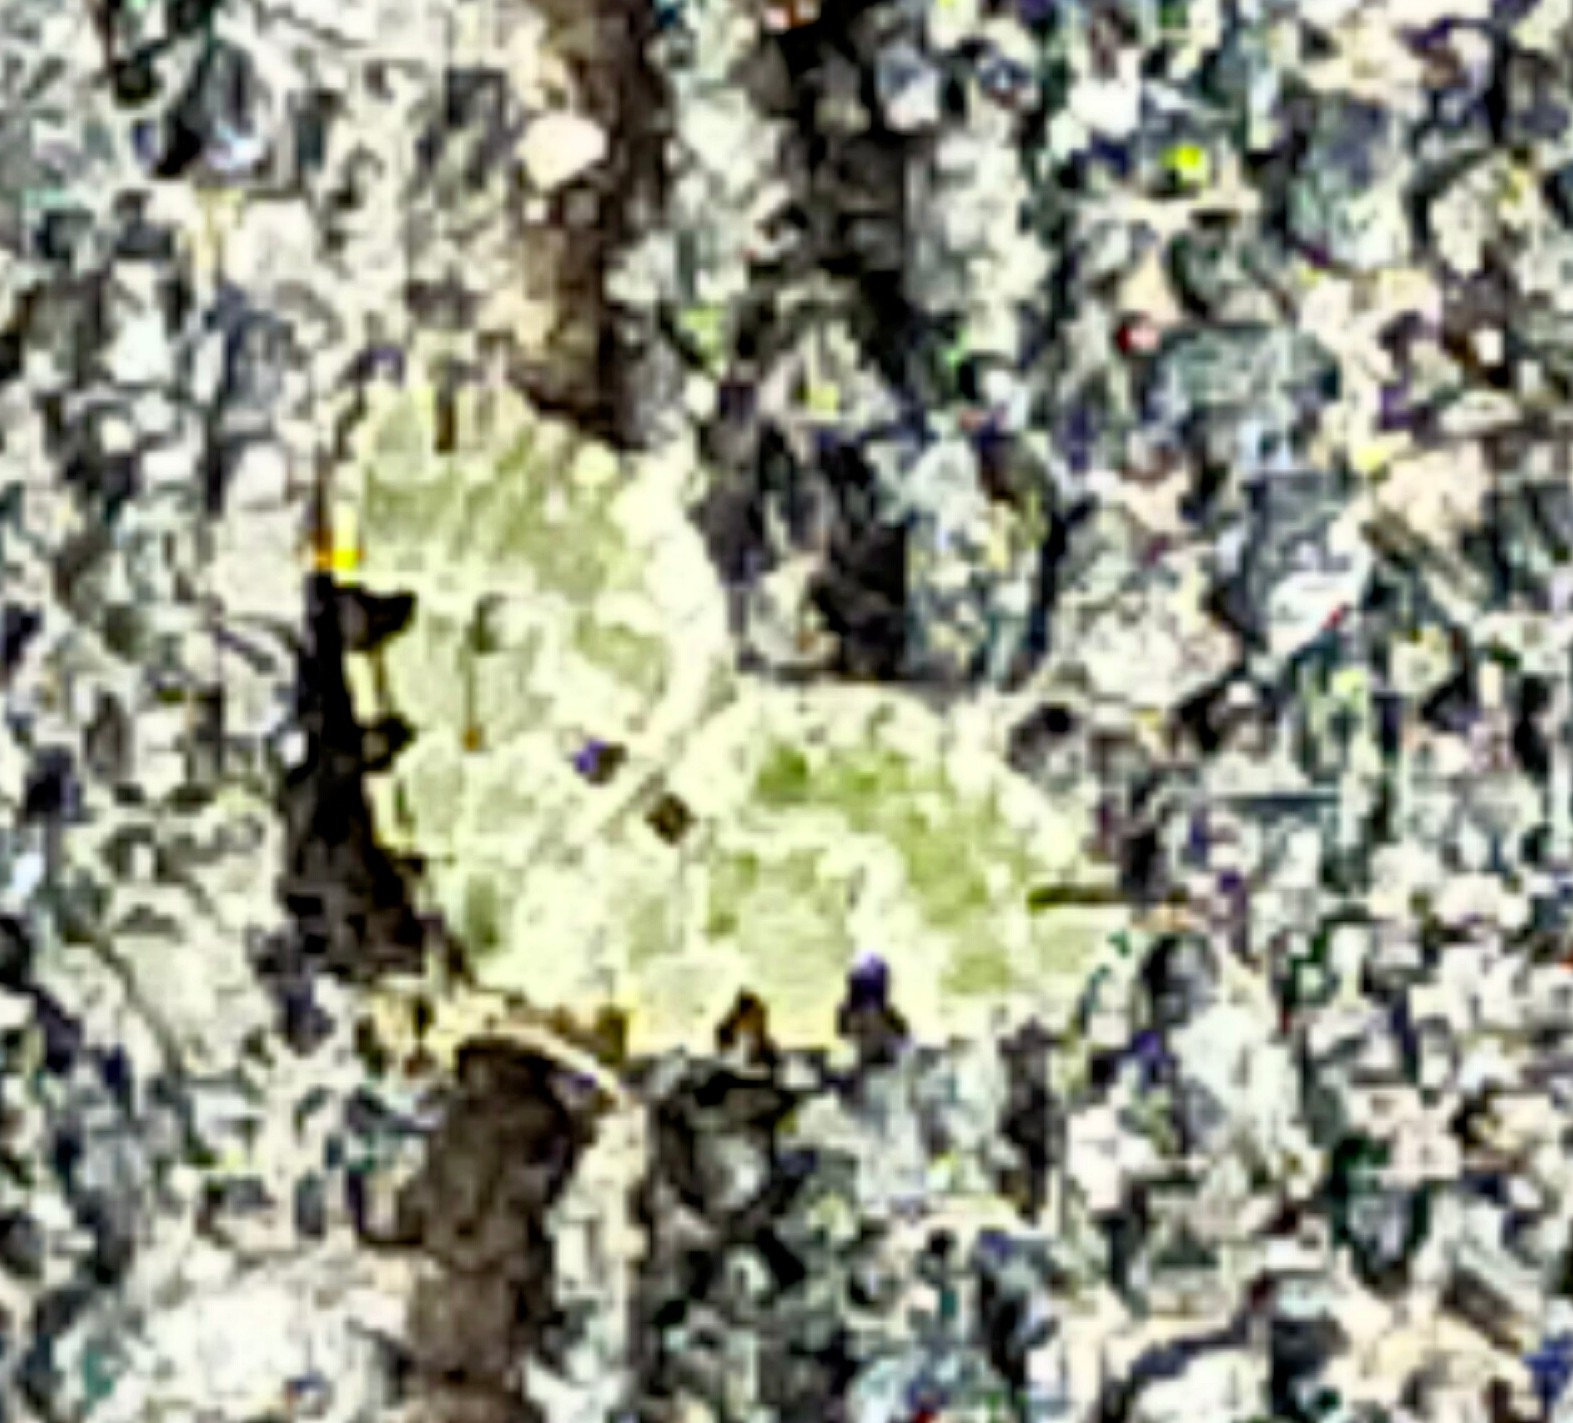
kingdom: Animalia
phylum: Arthropoda
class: Insecta
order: Lepidoptera
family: Geometridae
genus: Colostygia
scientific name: Colostygia pectinataria
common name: Green carpet
